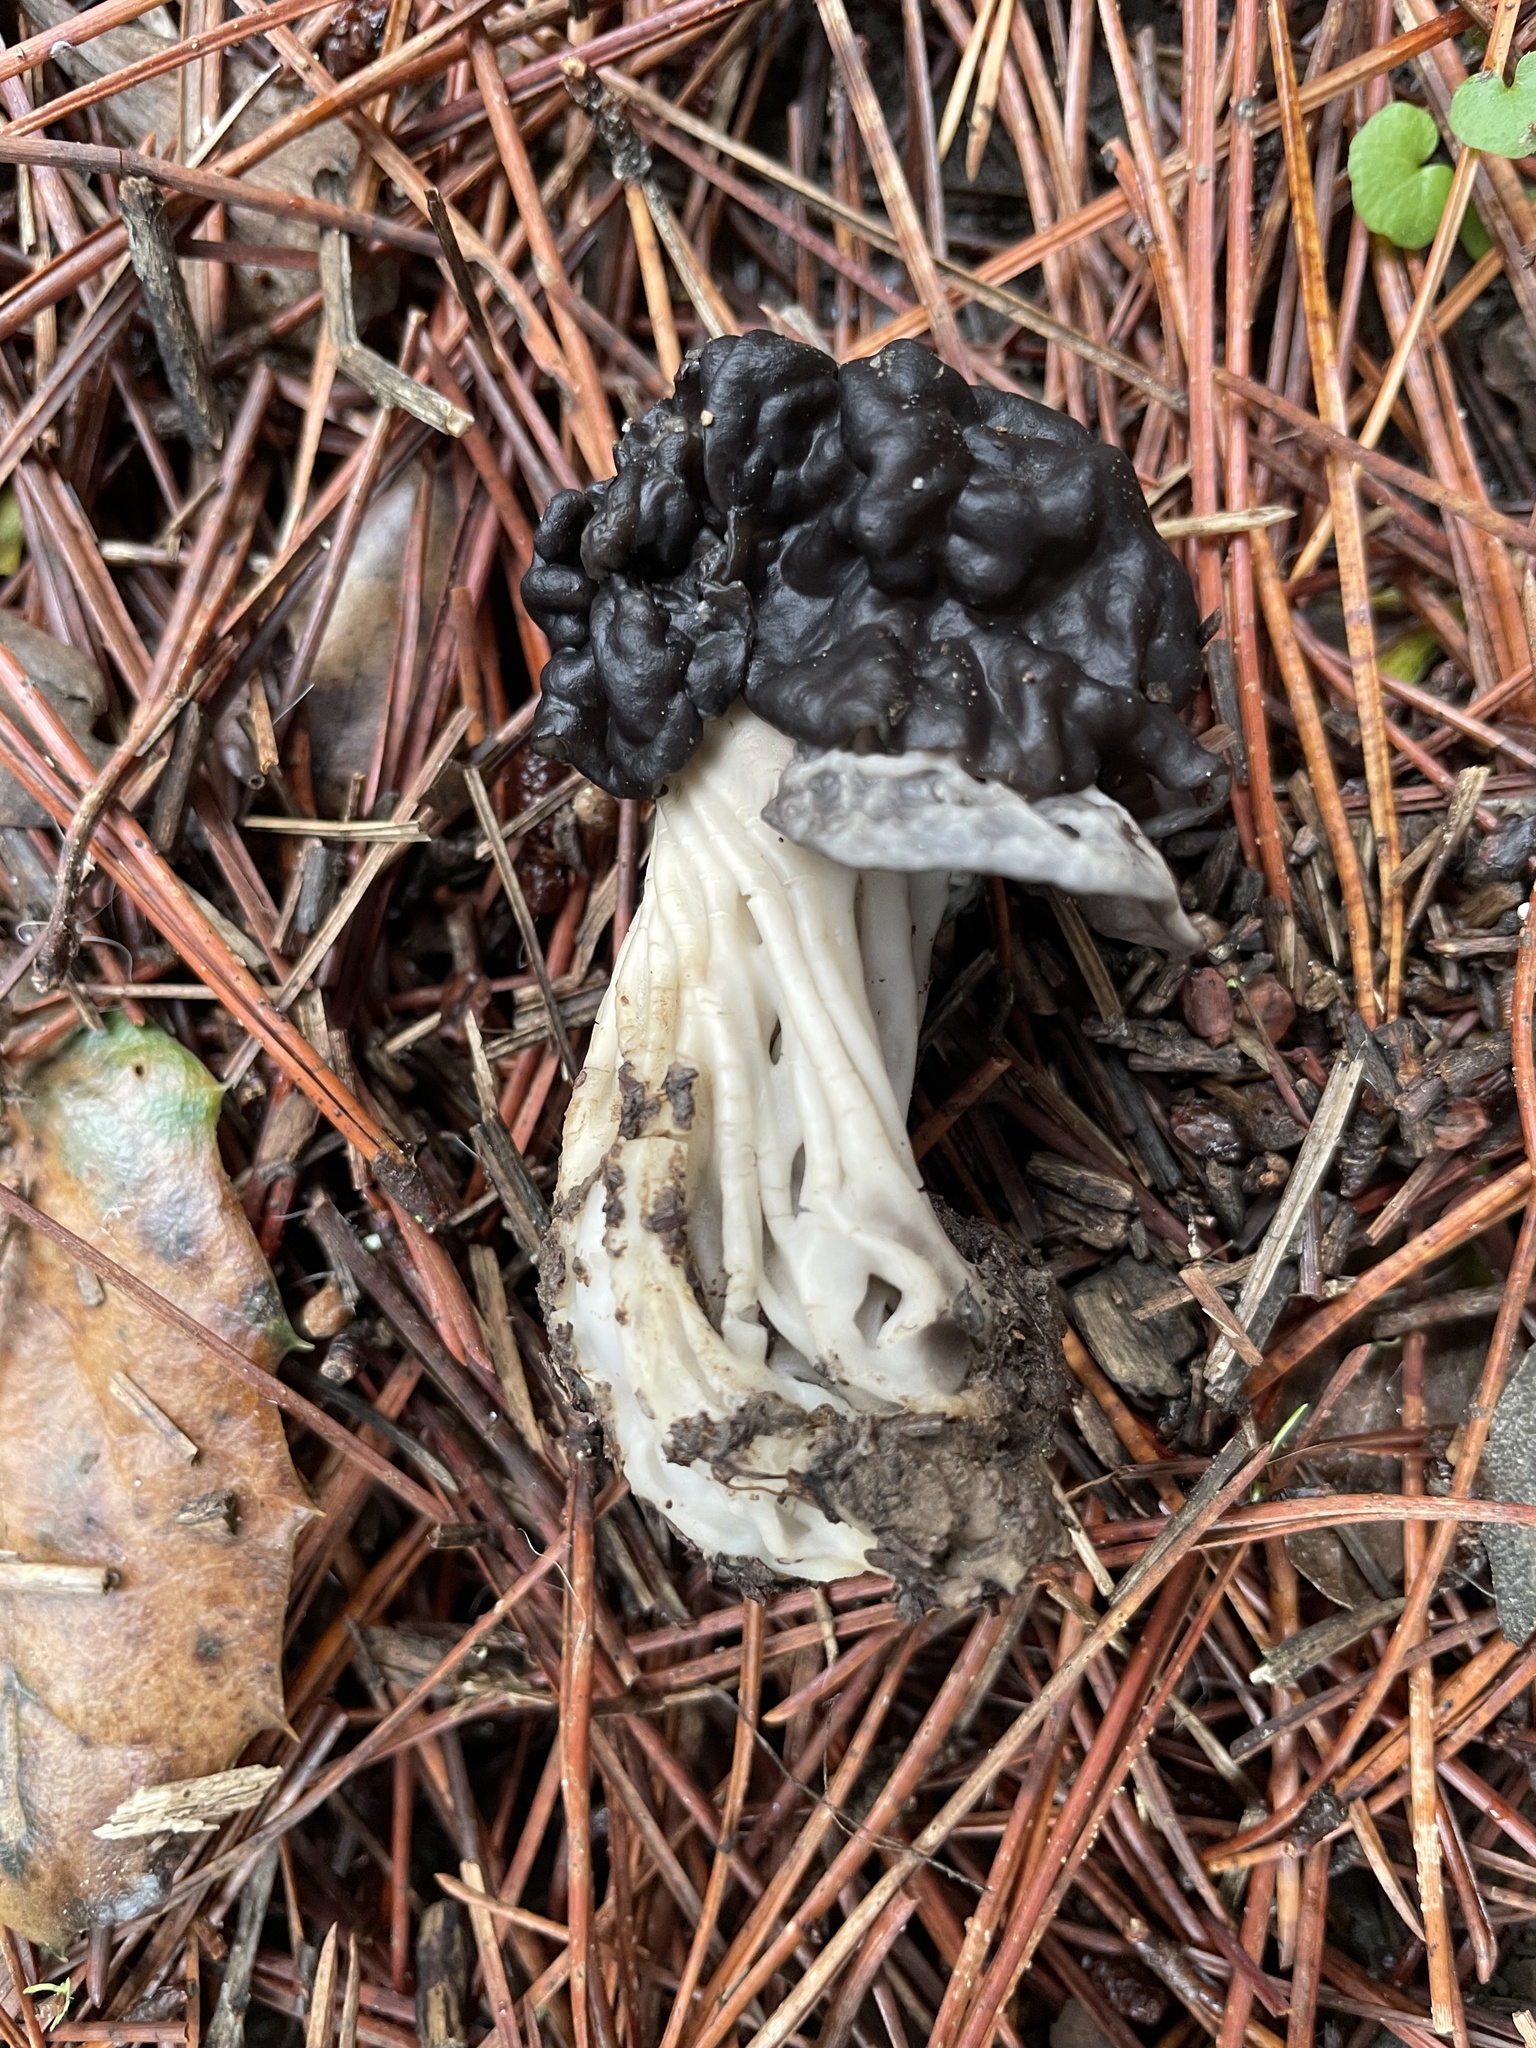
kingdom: Fungi
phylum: Ascomycota
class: Pezizomycetes
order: Pezizales
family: Helvellaceae
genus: Helvella
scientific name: Helvella vespertina
